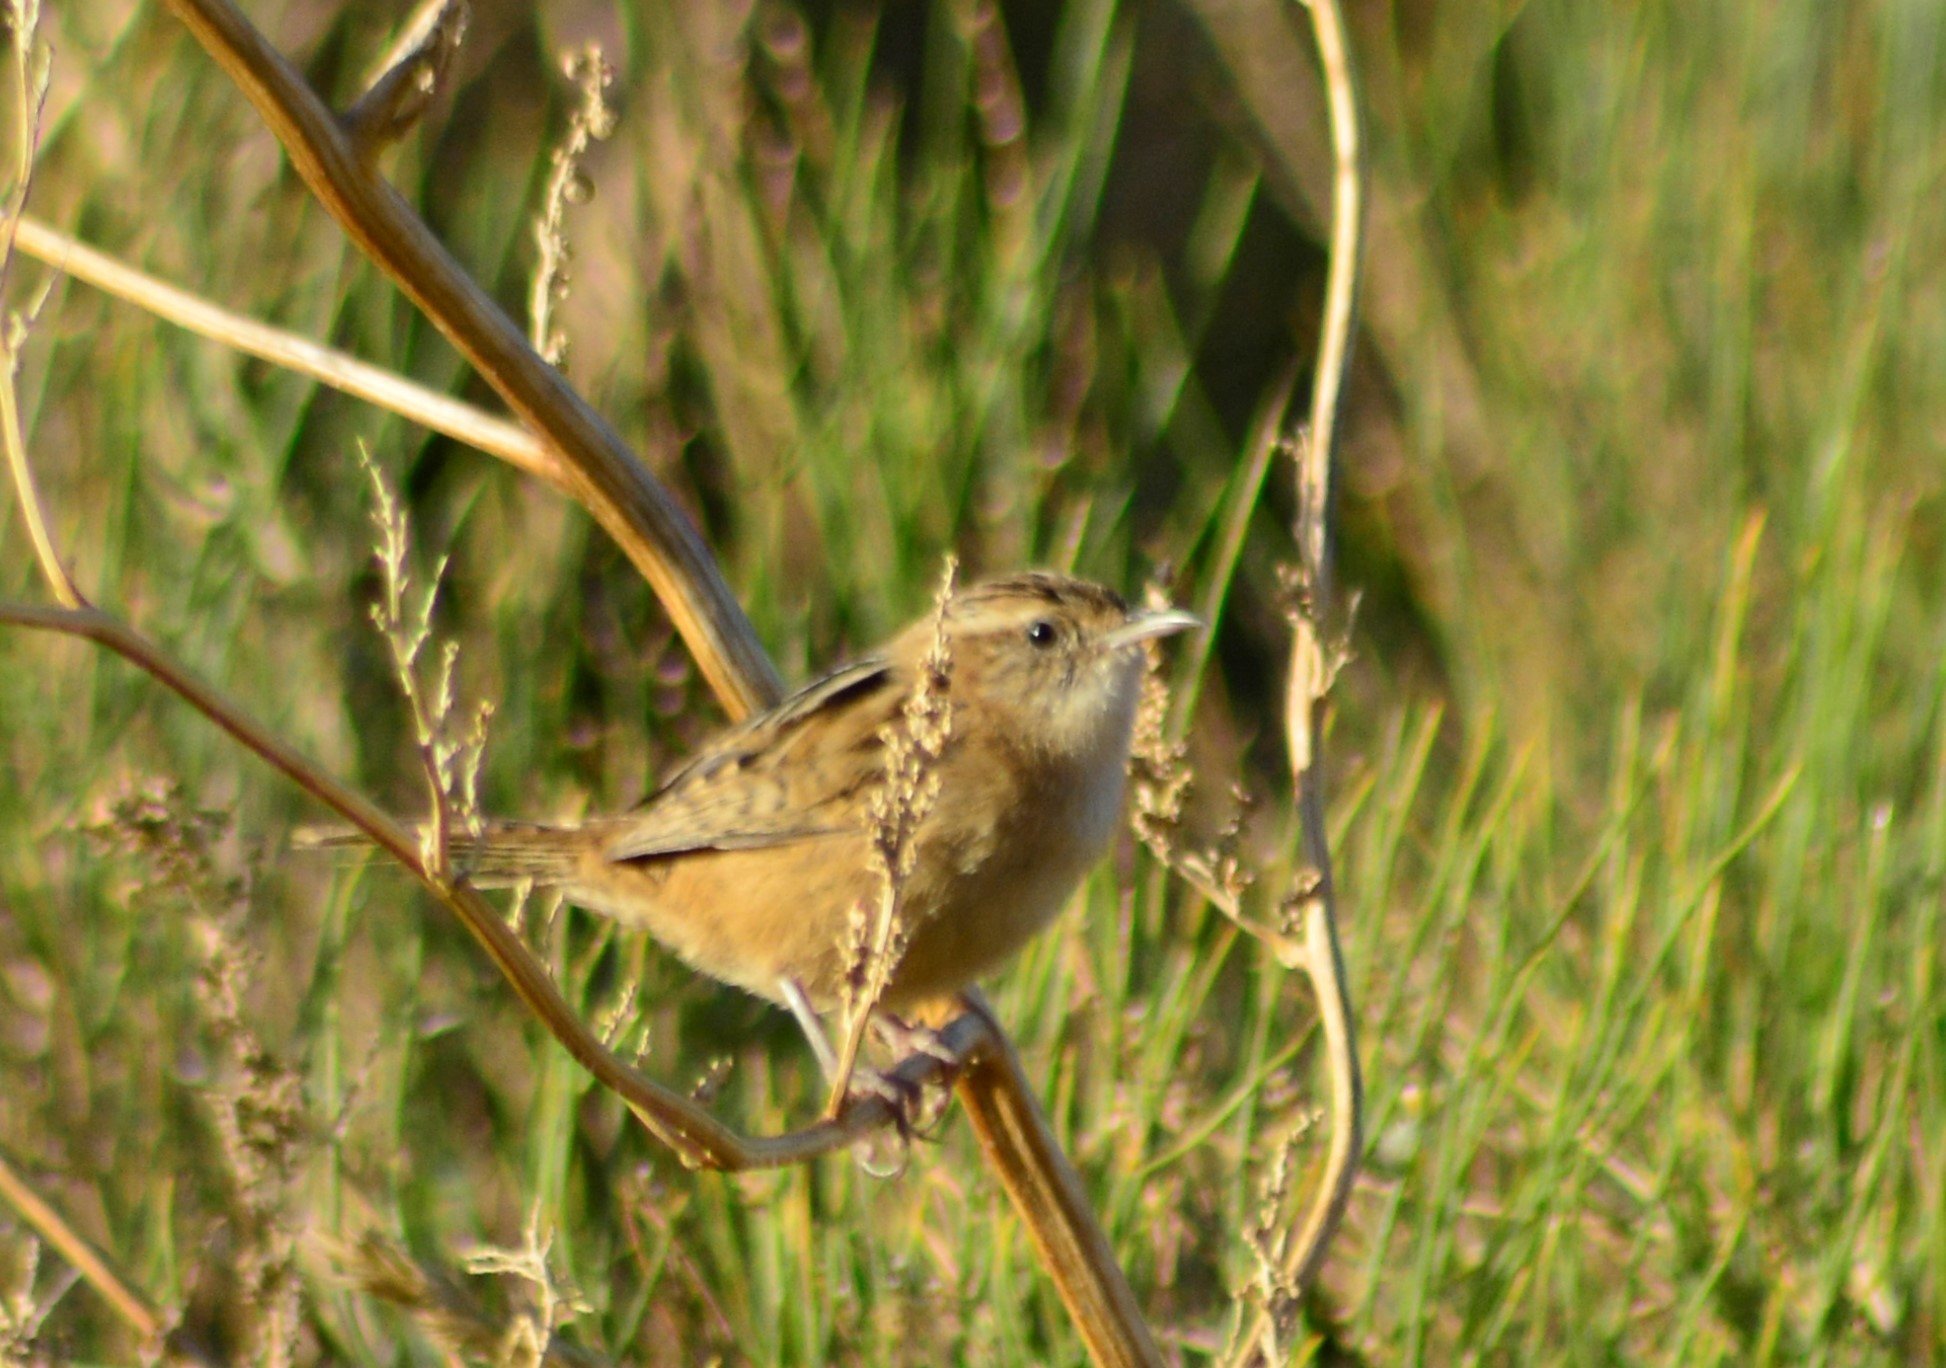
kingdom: Animalia
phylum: Chordata
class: Aves
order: Passeriformes
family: Troglodytidae
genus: Cistothorus
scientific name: Cistothorus platensis
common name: Sedge wren
